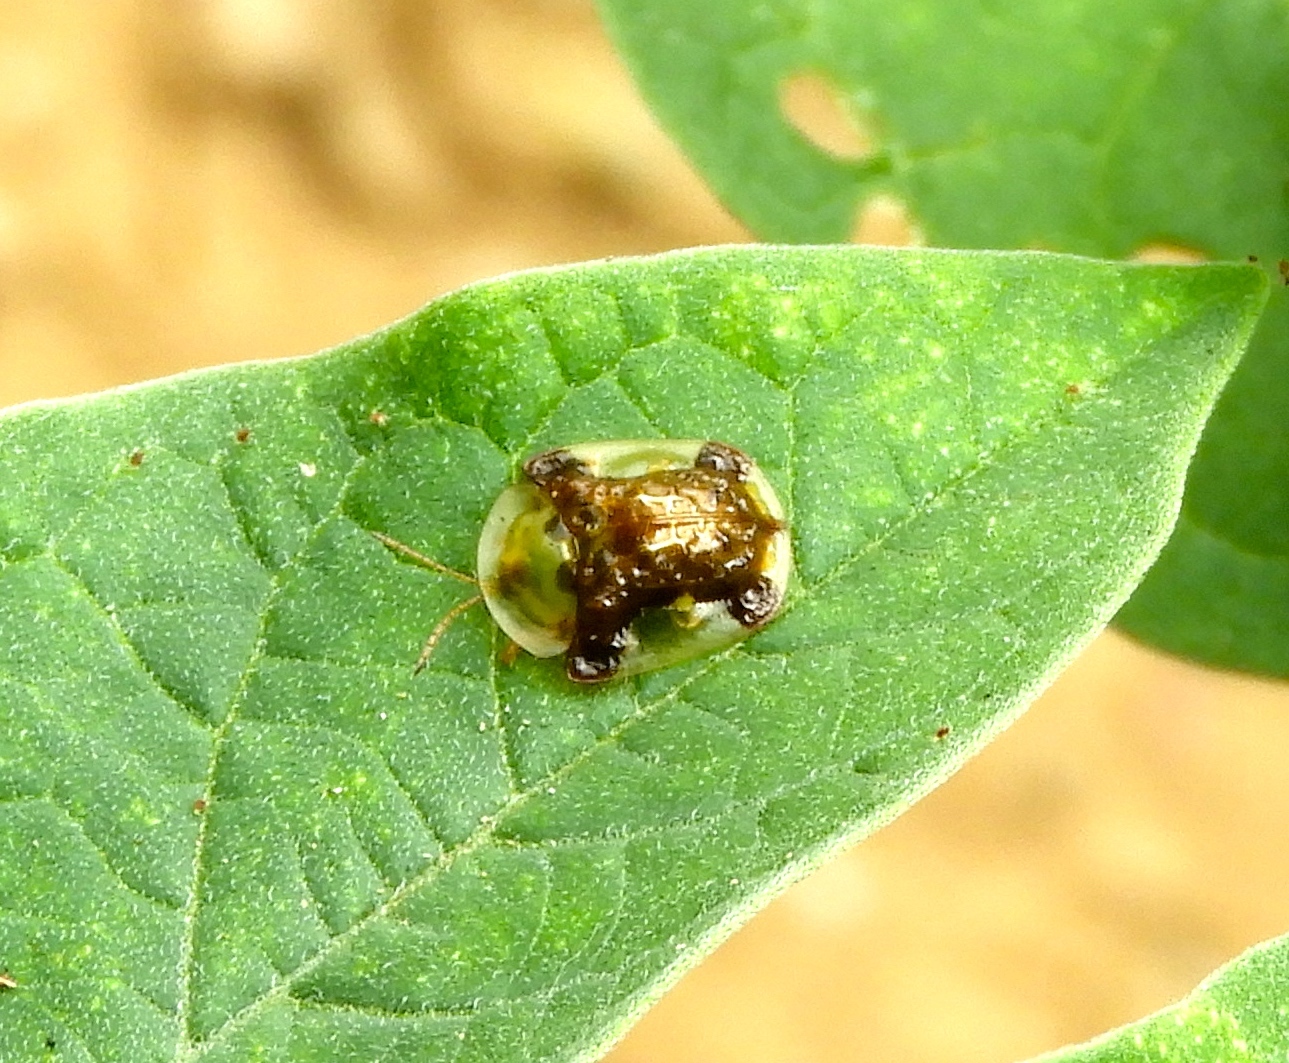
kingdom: Animalia
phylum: Arthropoda
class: Insecta
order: Coleoptera
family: Chrysomelidae
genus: Helocassis
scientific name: Helocassis testudinaria
